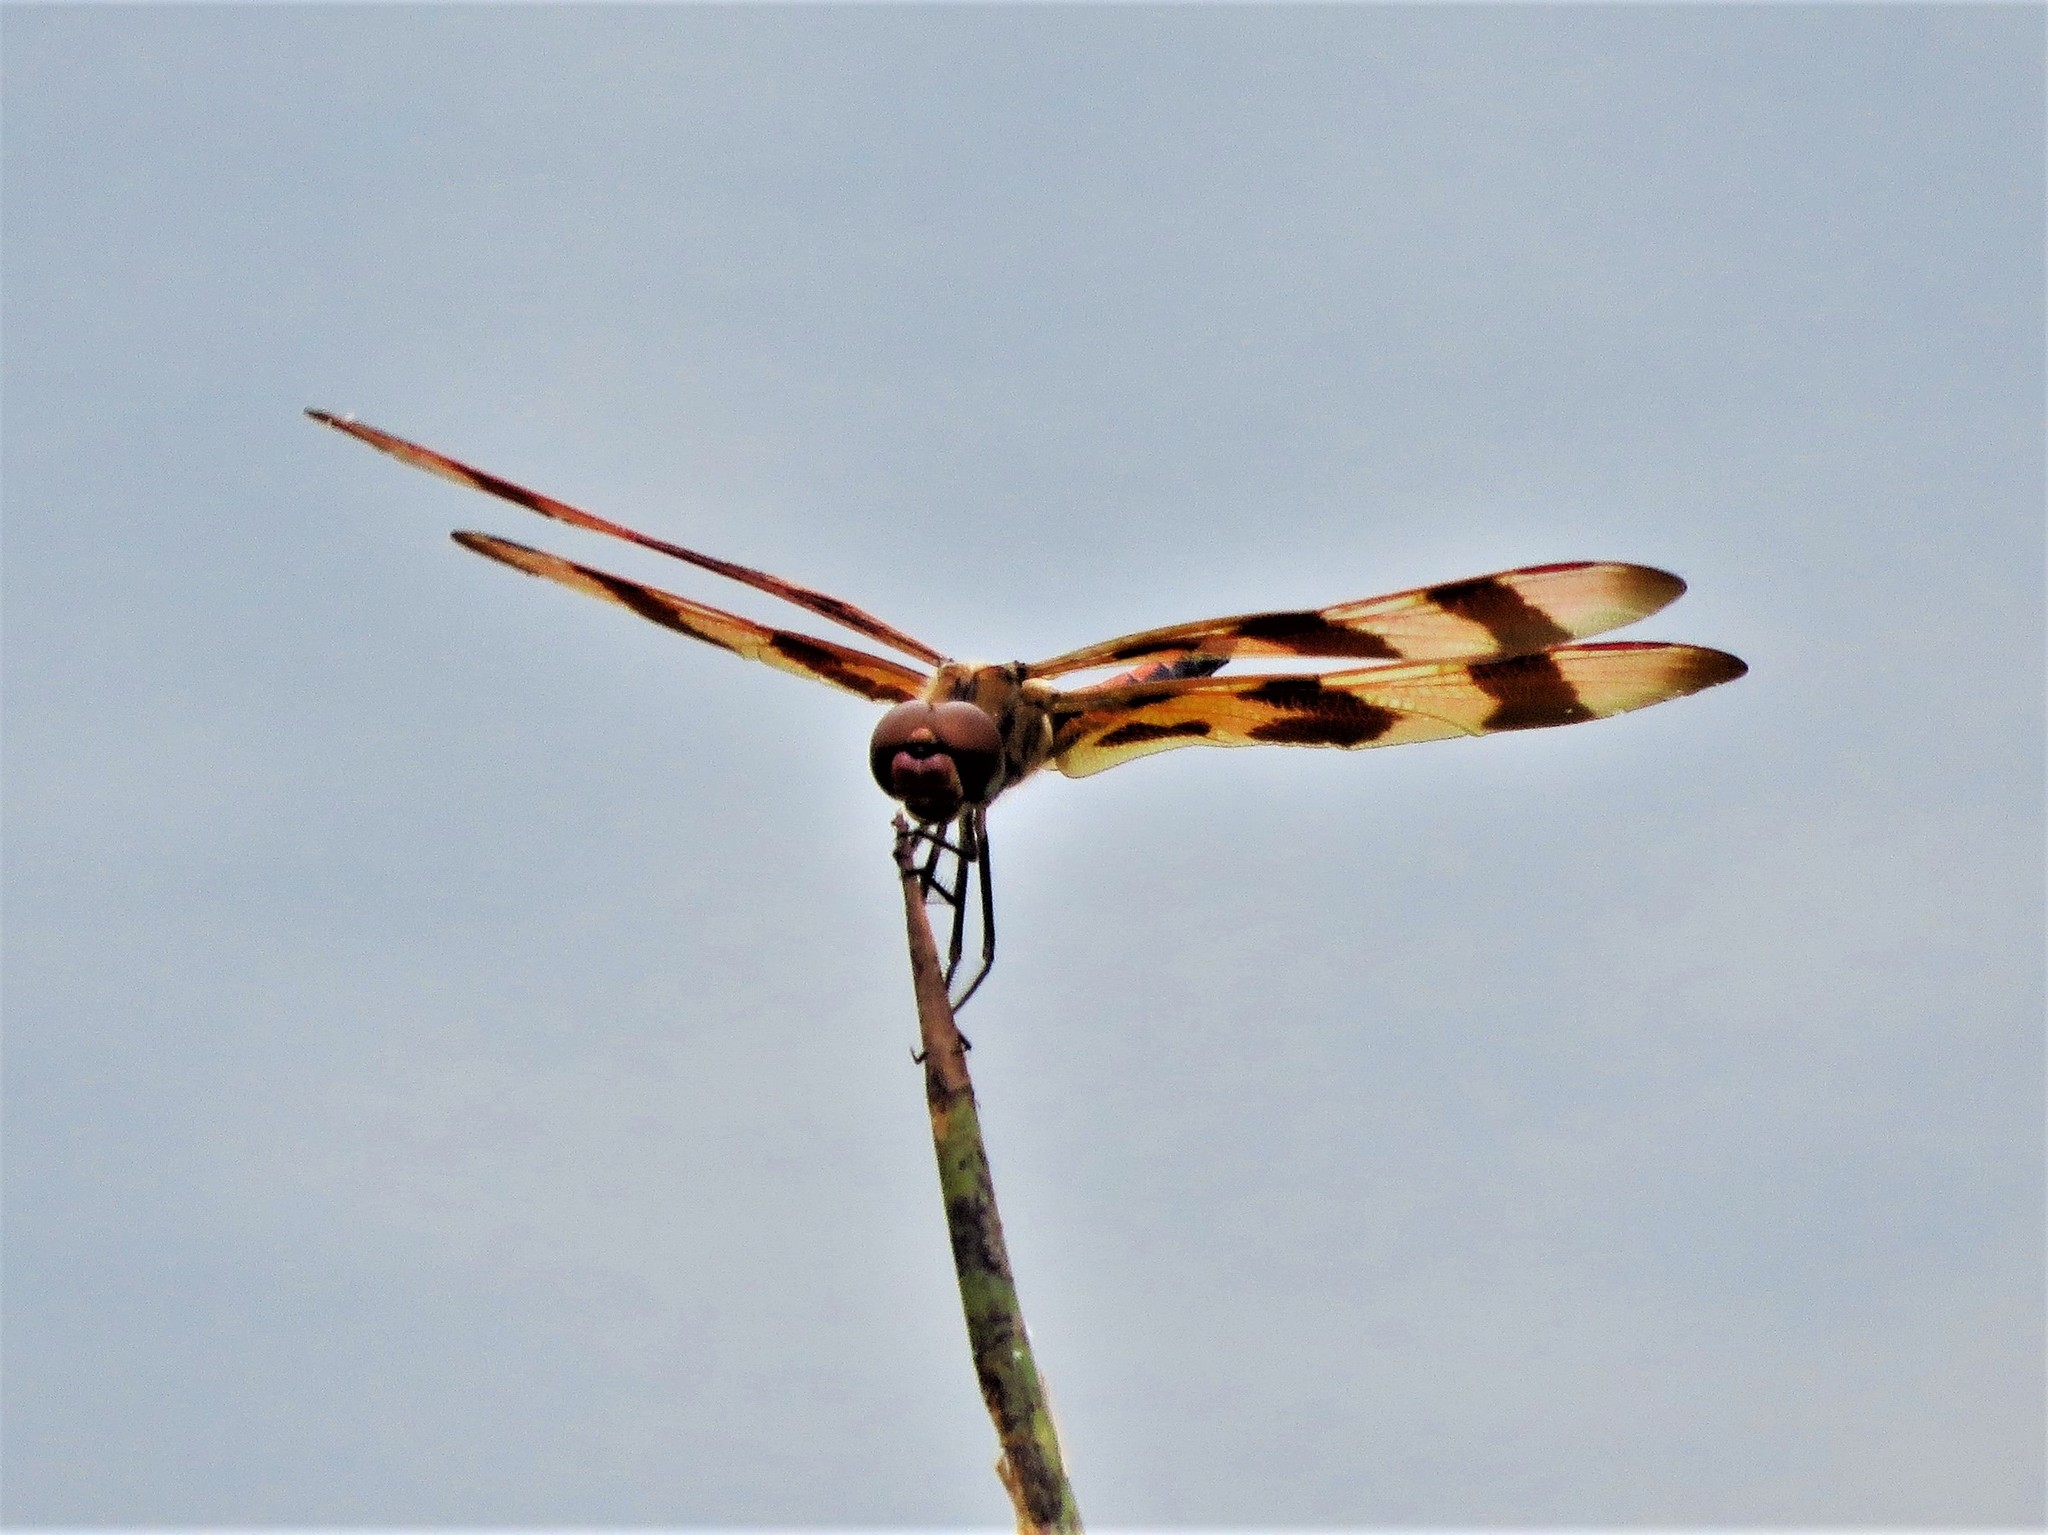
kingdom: Animalia
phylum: Arthropoda
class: Insecta
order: Odonata
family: Libellulidae
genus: Celithemis
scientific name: Celithemis eponina
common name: Halloween pennant
